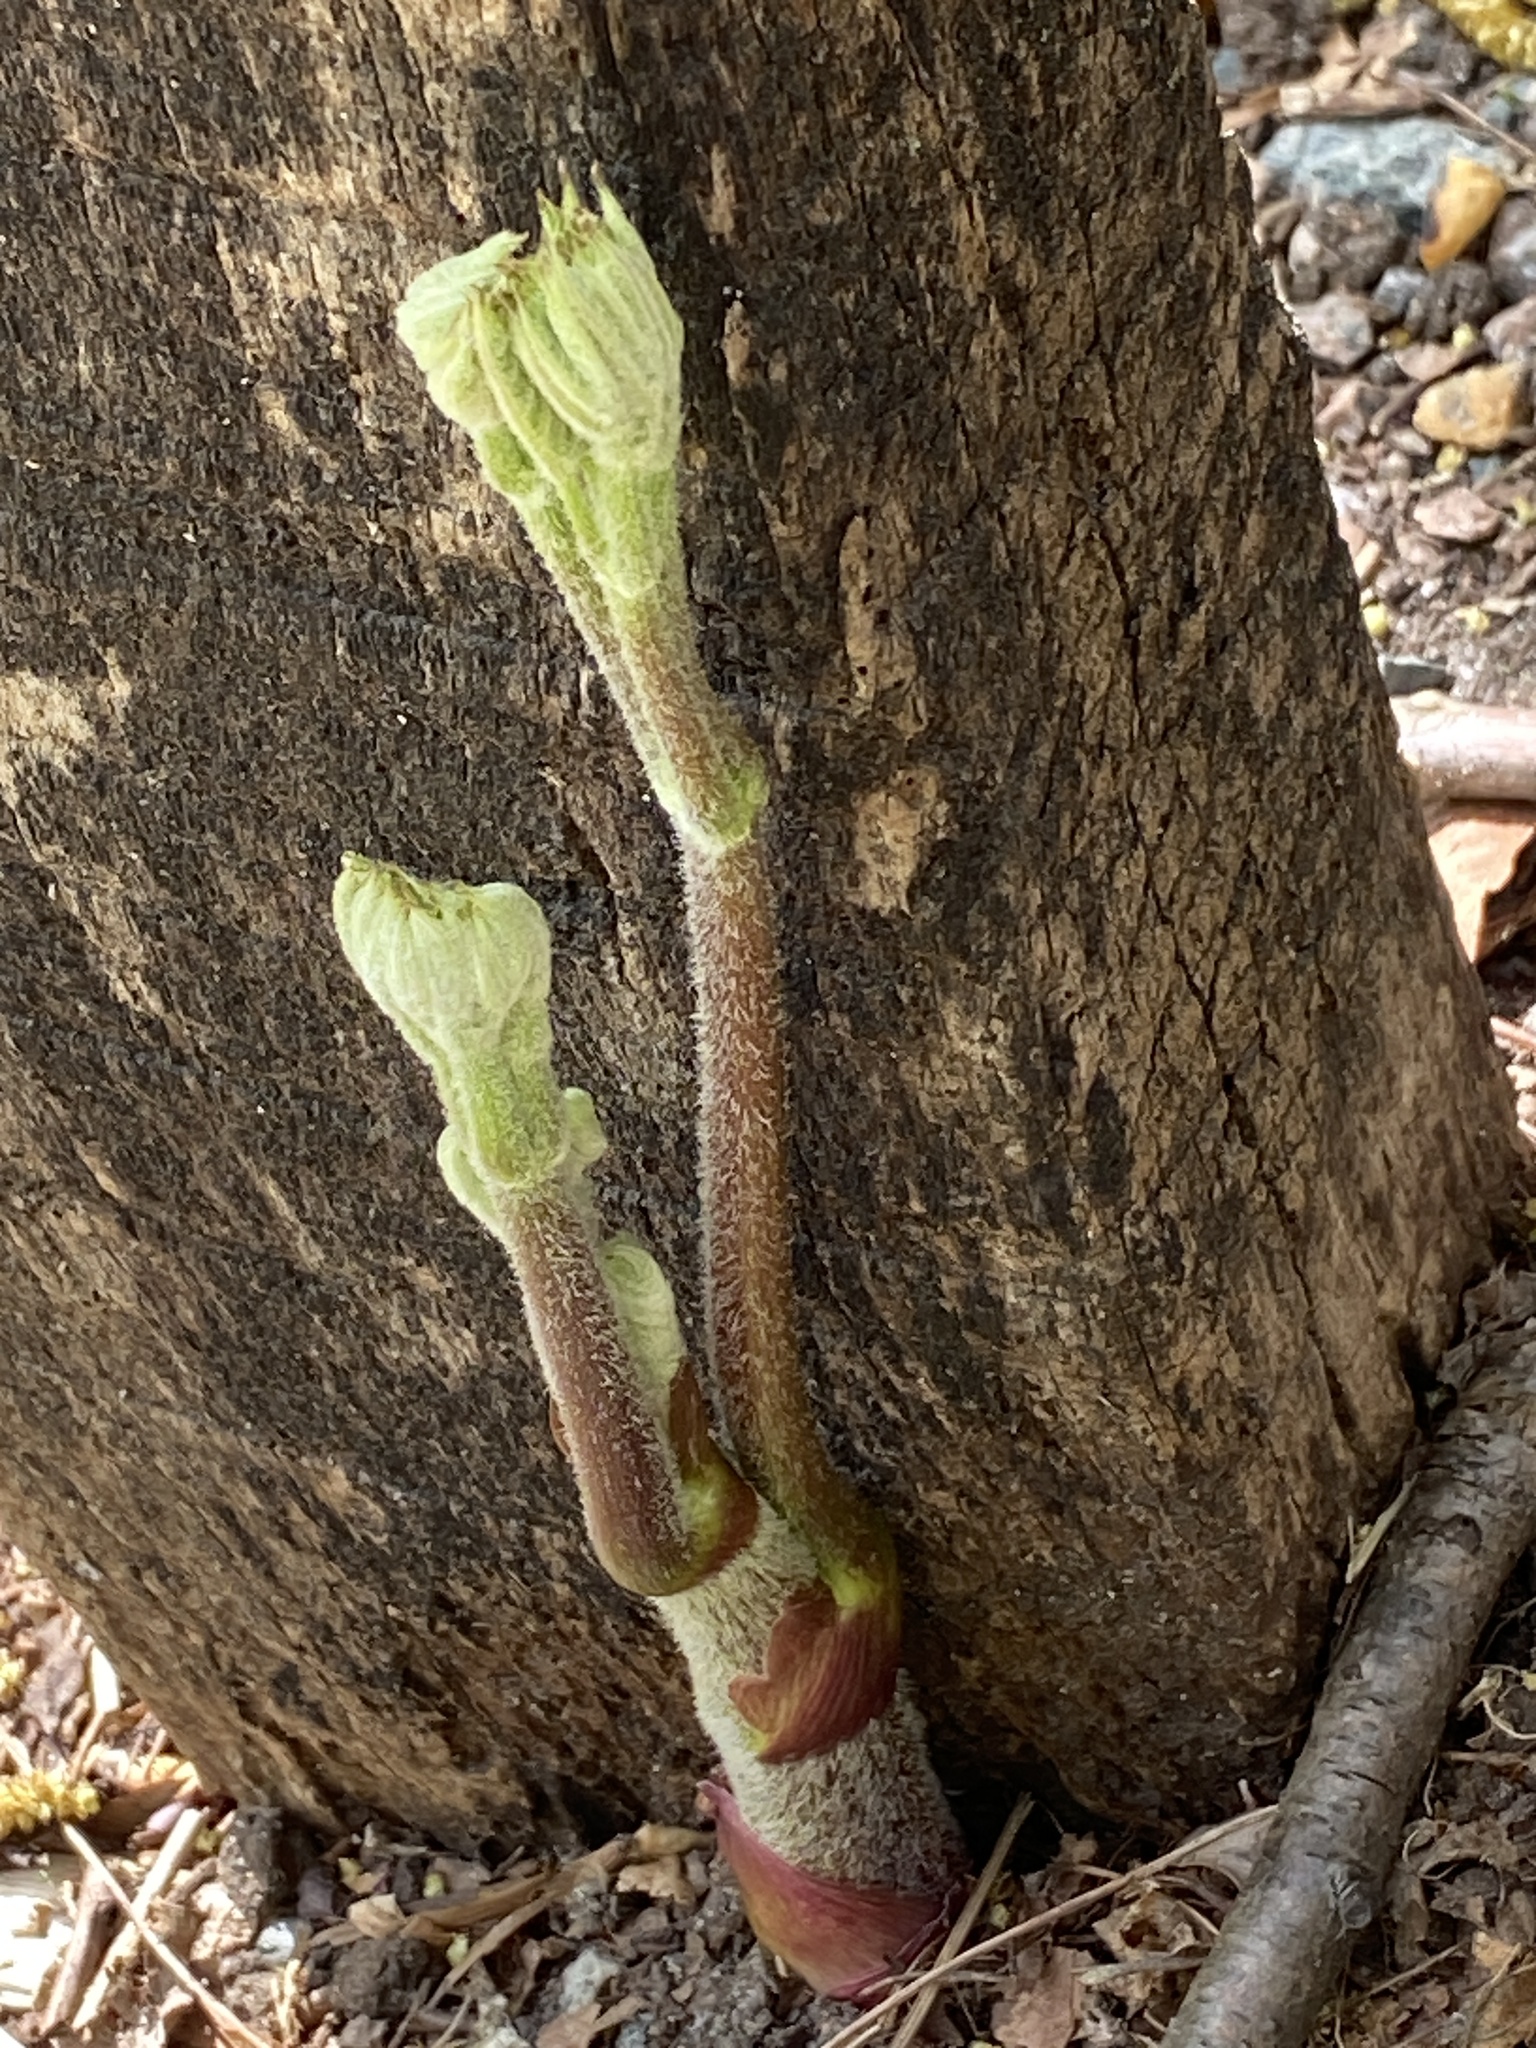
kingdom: Plantae
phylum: Tracheophyta
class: Magnoliopsida
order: Apiales
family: Araliaceae
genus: Aralia
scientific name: Aralia racemosa
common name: American-spikenard
